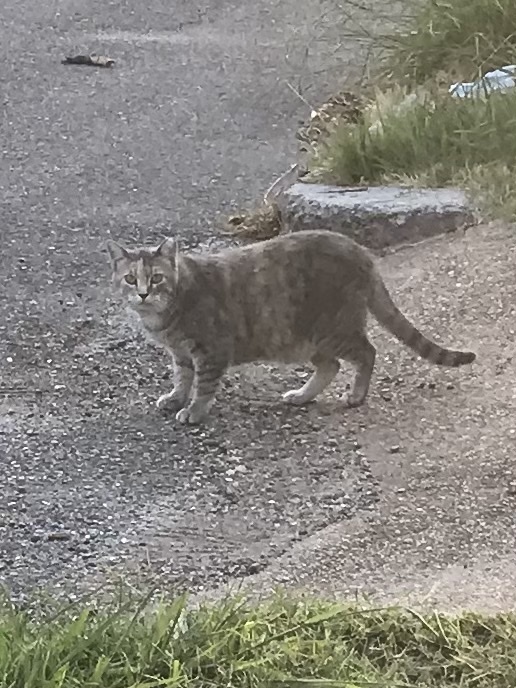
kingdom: Animalia
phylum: Chordata
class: Mammalia
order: Carnivora
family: Felidae
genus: Felis
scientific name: Felis catus
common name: Domestic cat
